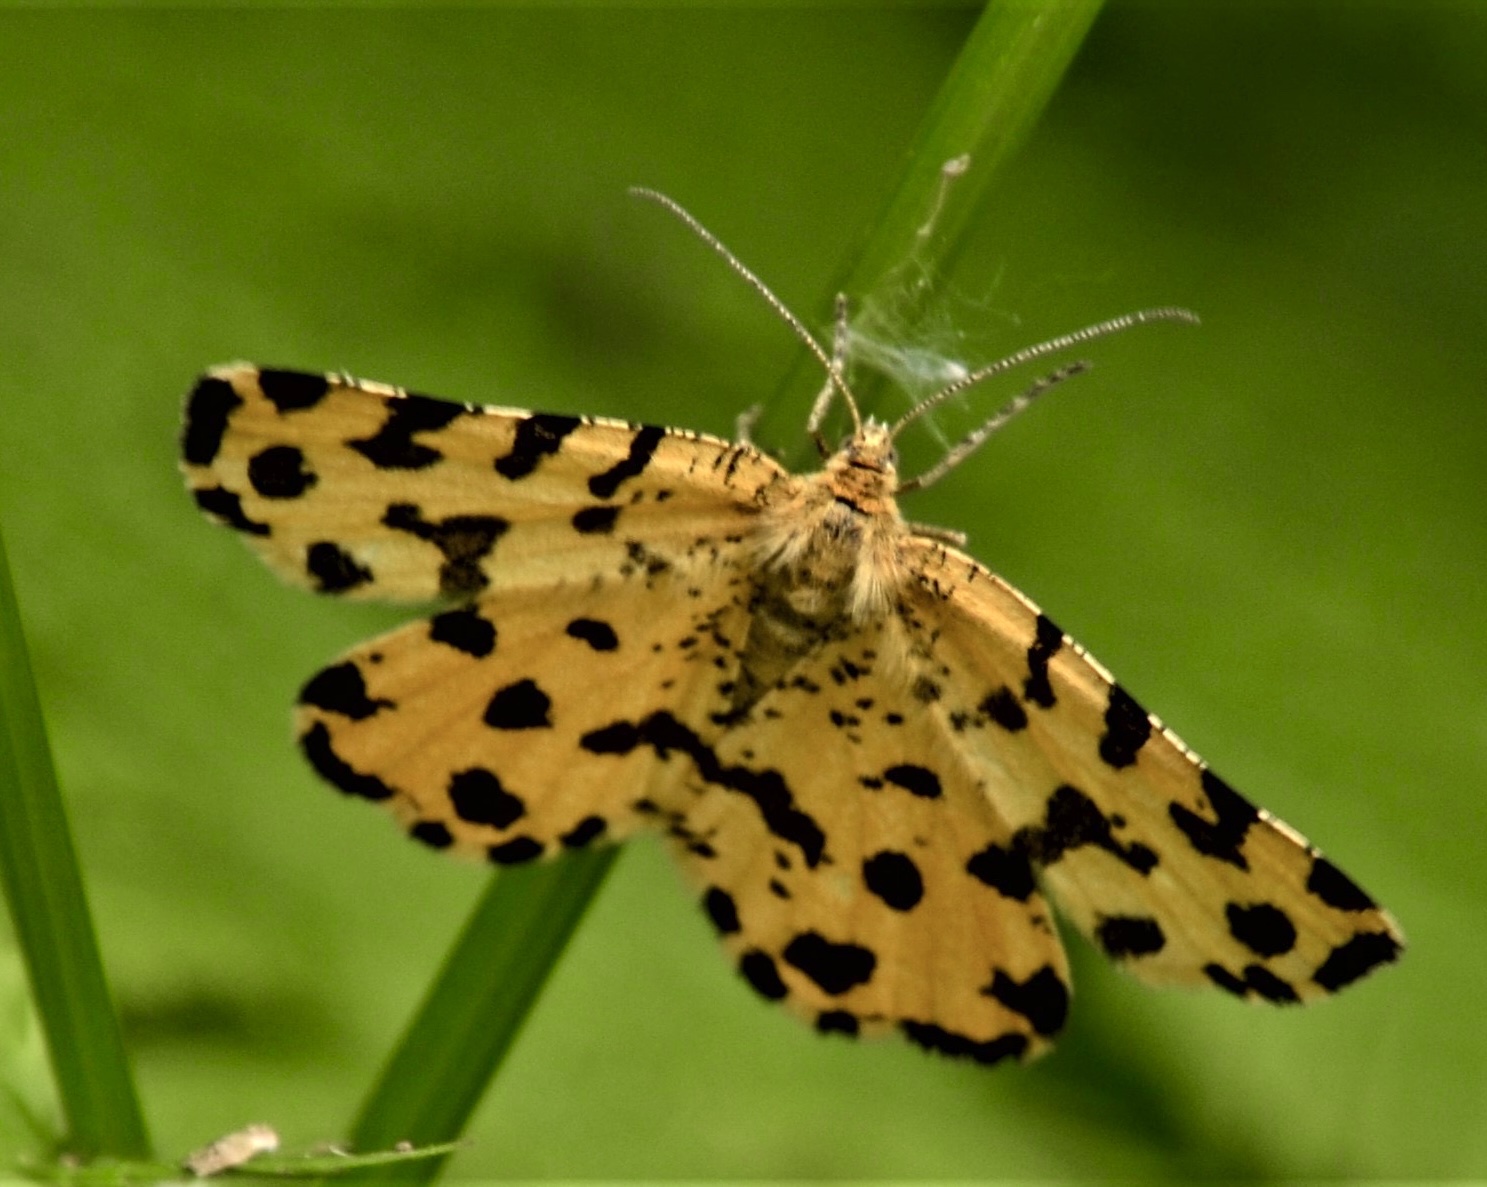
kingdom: Animalia
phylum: Arthropoda
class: Insecta
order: Lepidoptera
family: Geometridae
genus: Pseudopanthera
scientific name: Pseudopanthera macularia
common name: Speckled yellow
